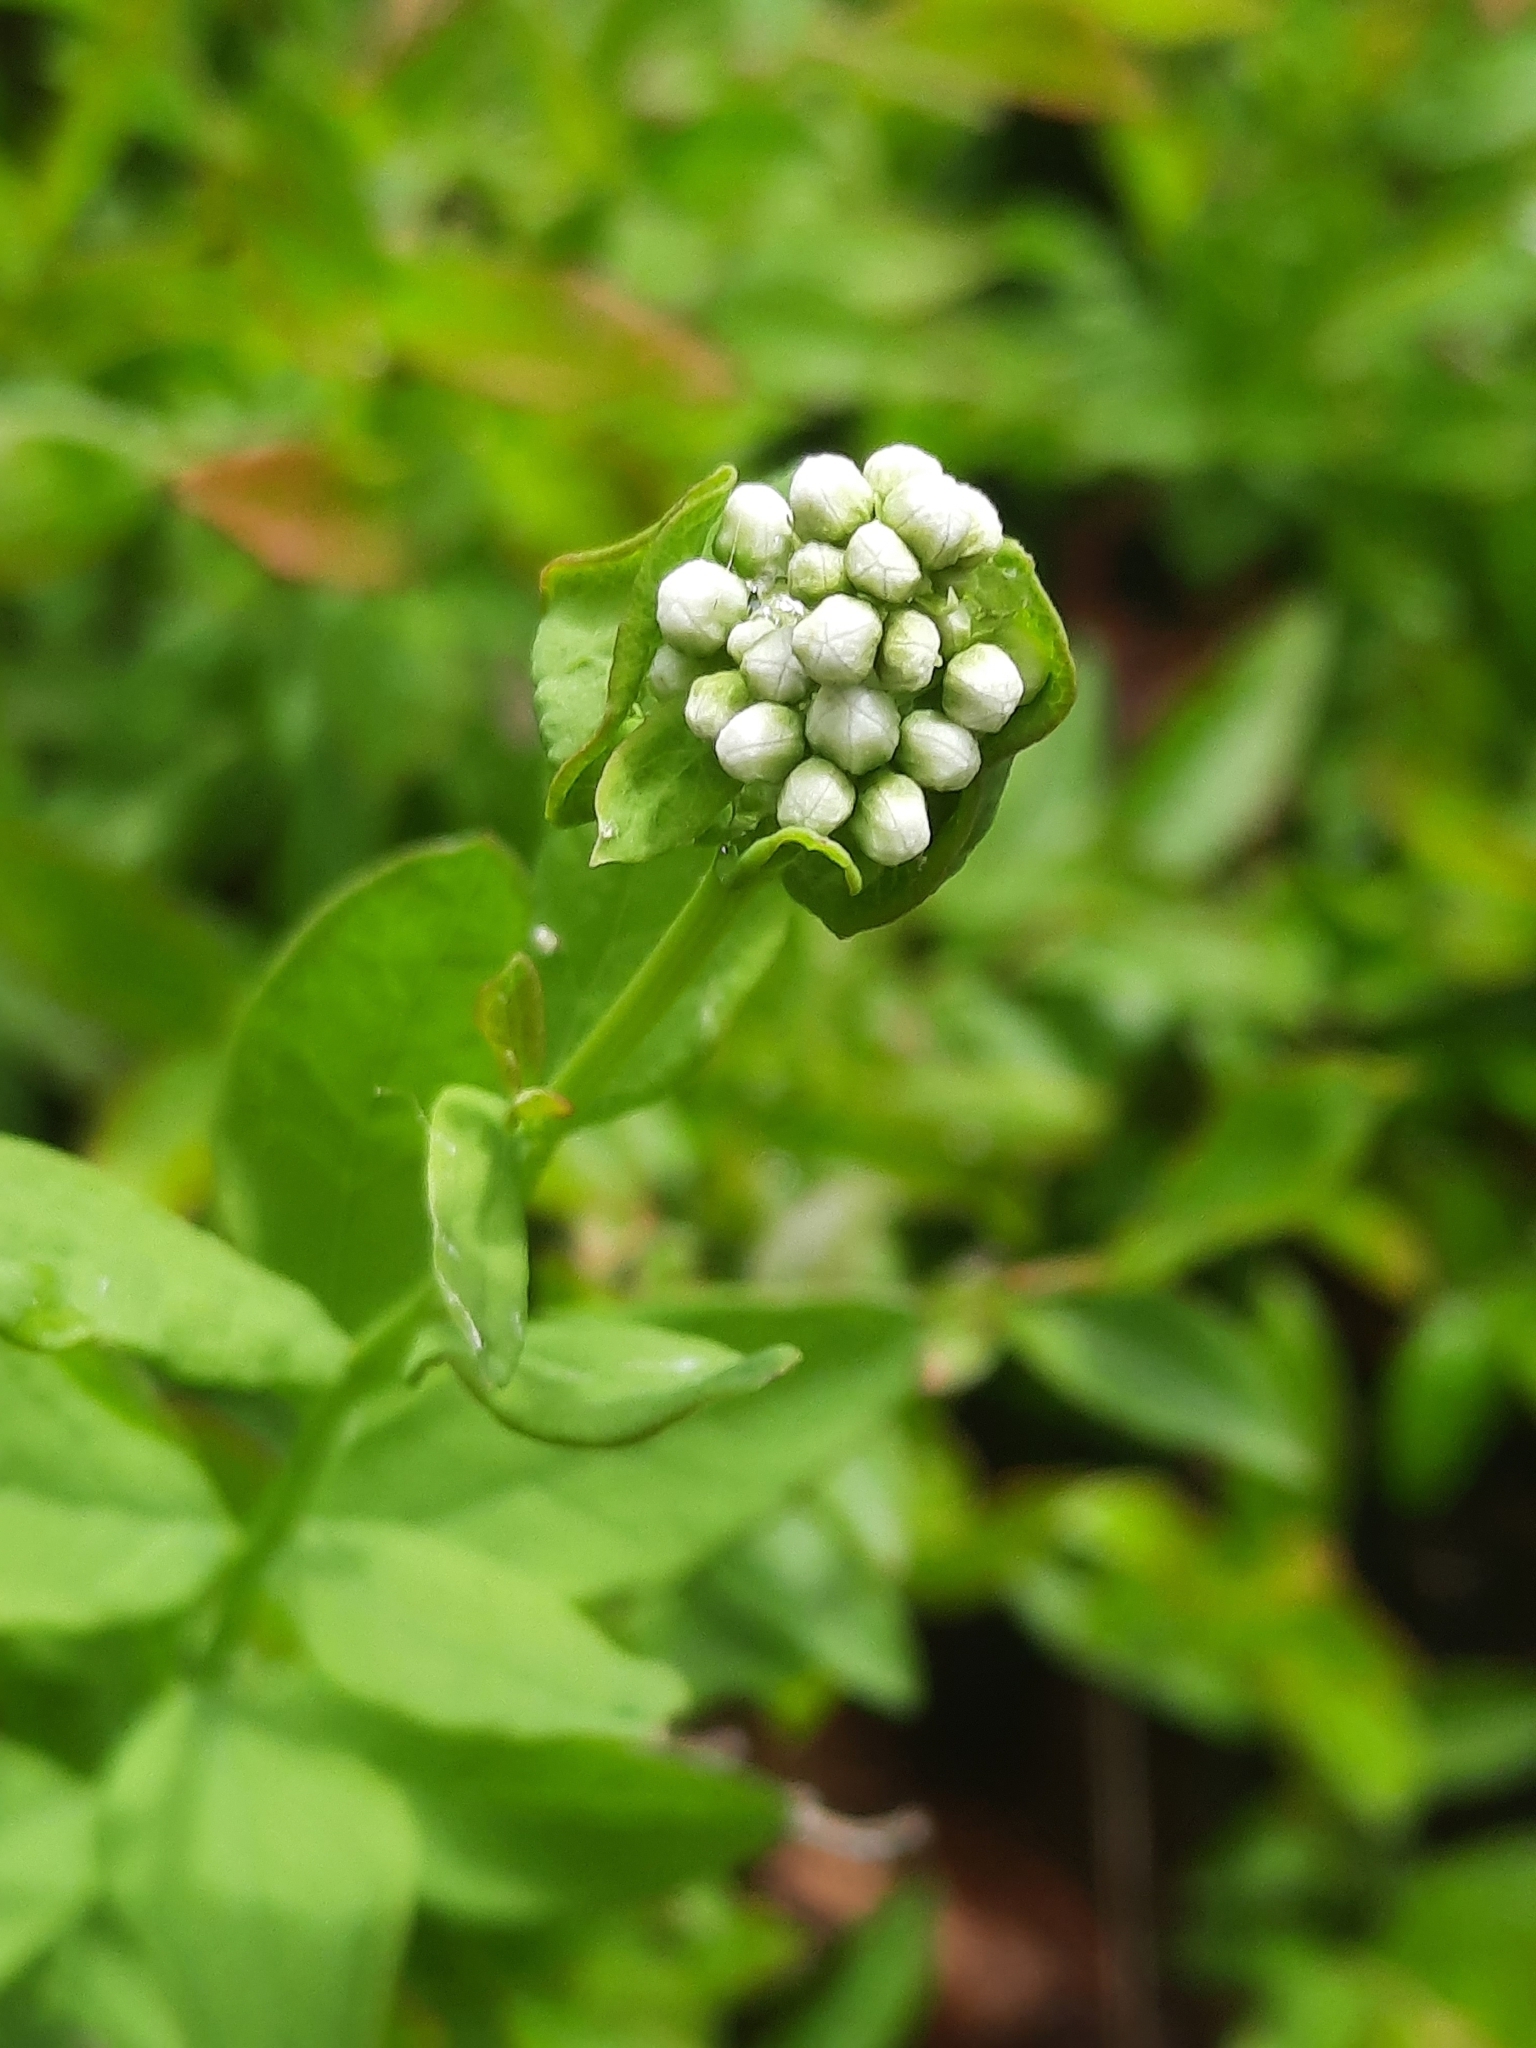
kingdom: Plantae
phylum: Tracheophyta
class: Magnoliopsida
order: Santalales
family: Comandraceae
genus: Comandra
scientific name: Comandra umbellata
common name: Bastard toadflax
